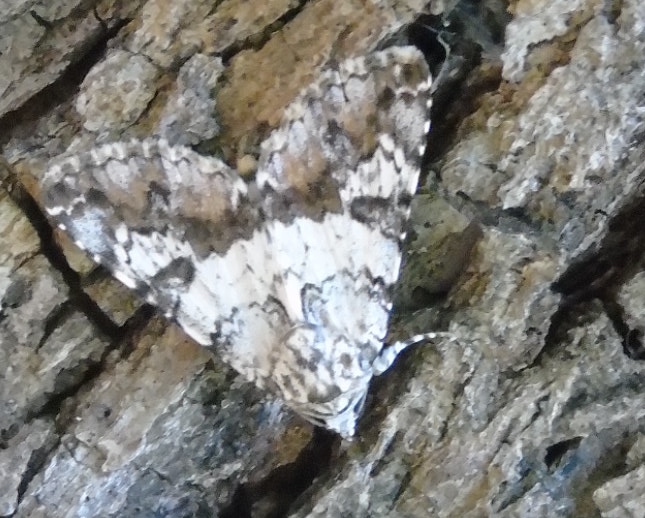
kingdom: Animalia
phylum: Arthropoda
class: Insecta
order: Lepidoptera
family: Erebidae
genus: Acolasis
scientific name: Acolasis bibitrix
